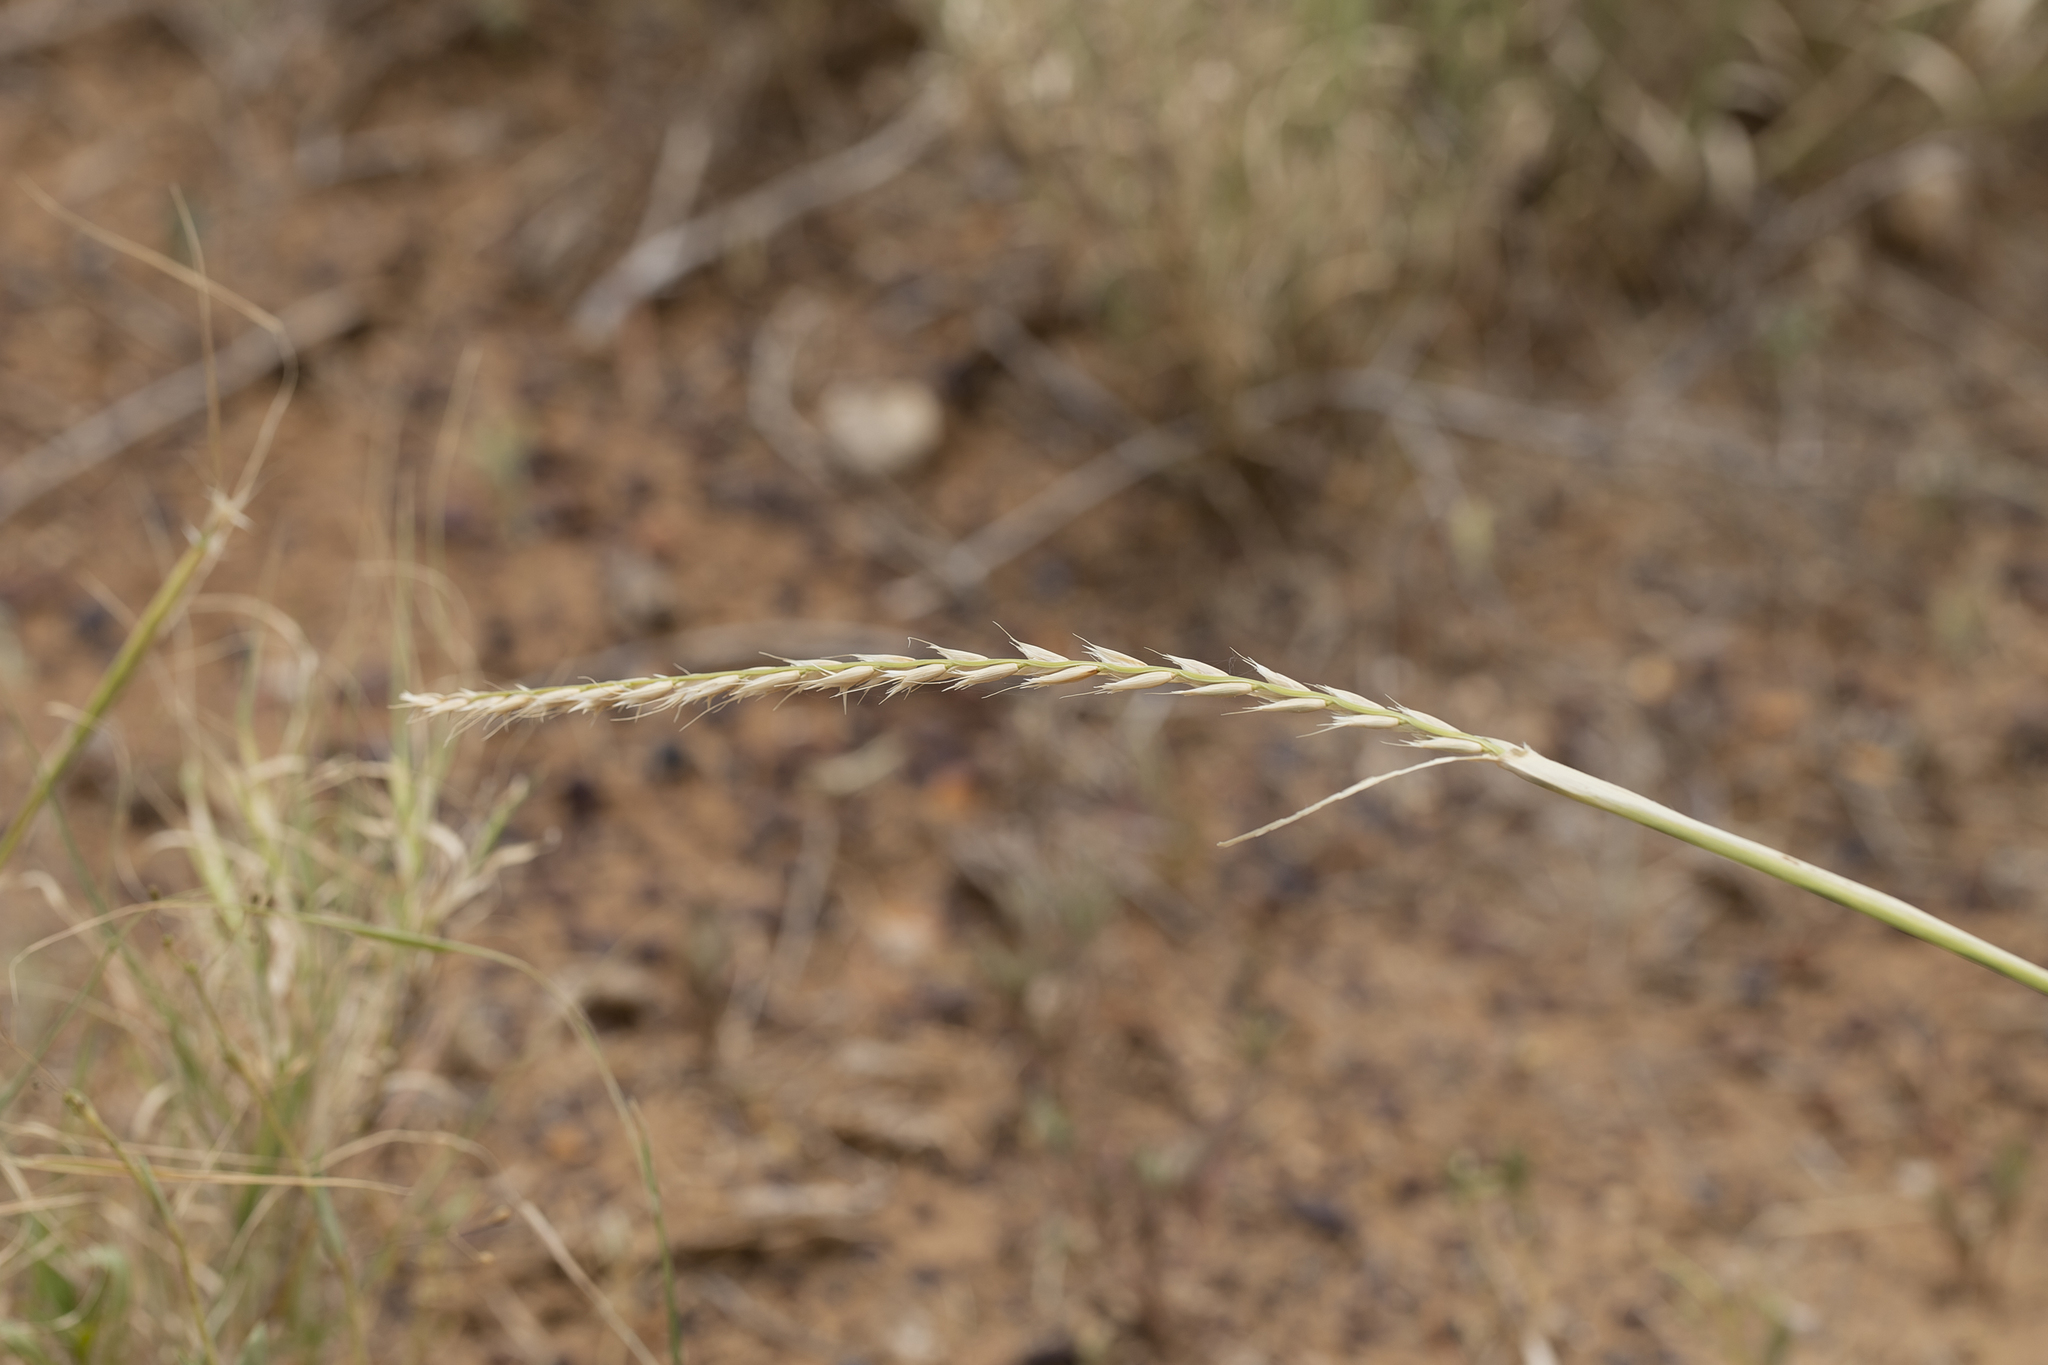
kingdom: Plantae
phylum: Tracheophyta
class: Liliopsida
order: Poales
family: Poaceae
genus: Astrebla
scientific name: Astrebla lappacea
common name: Curly mitchell grass
